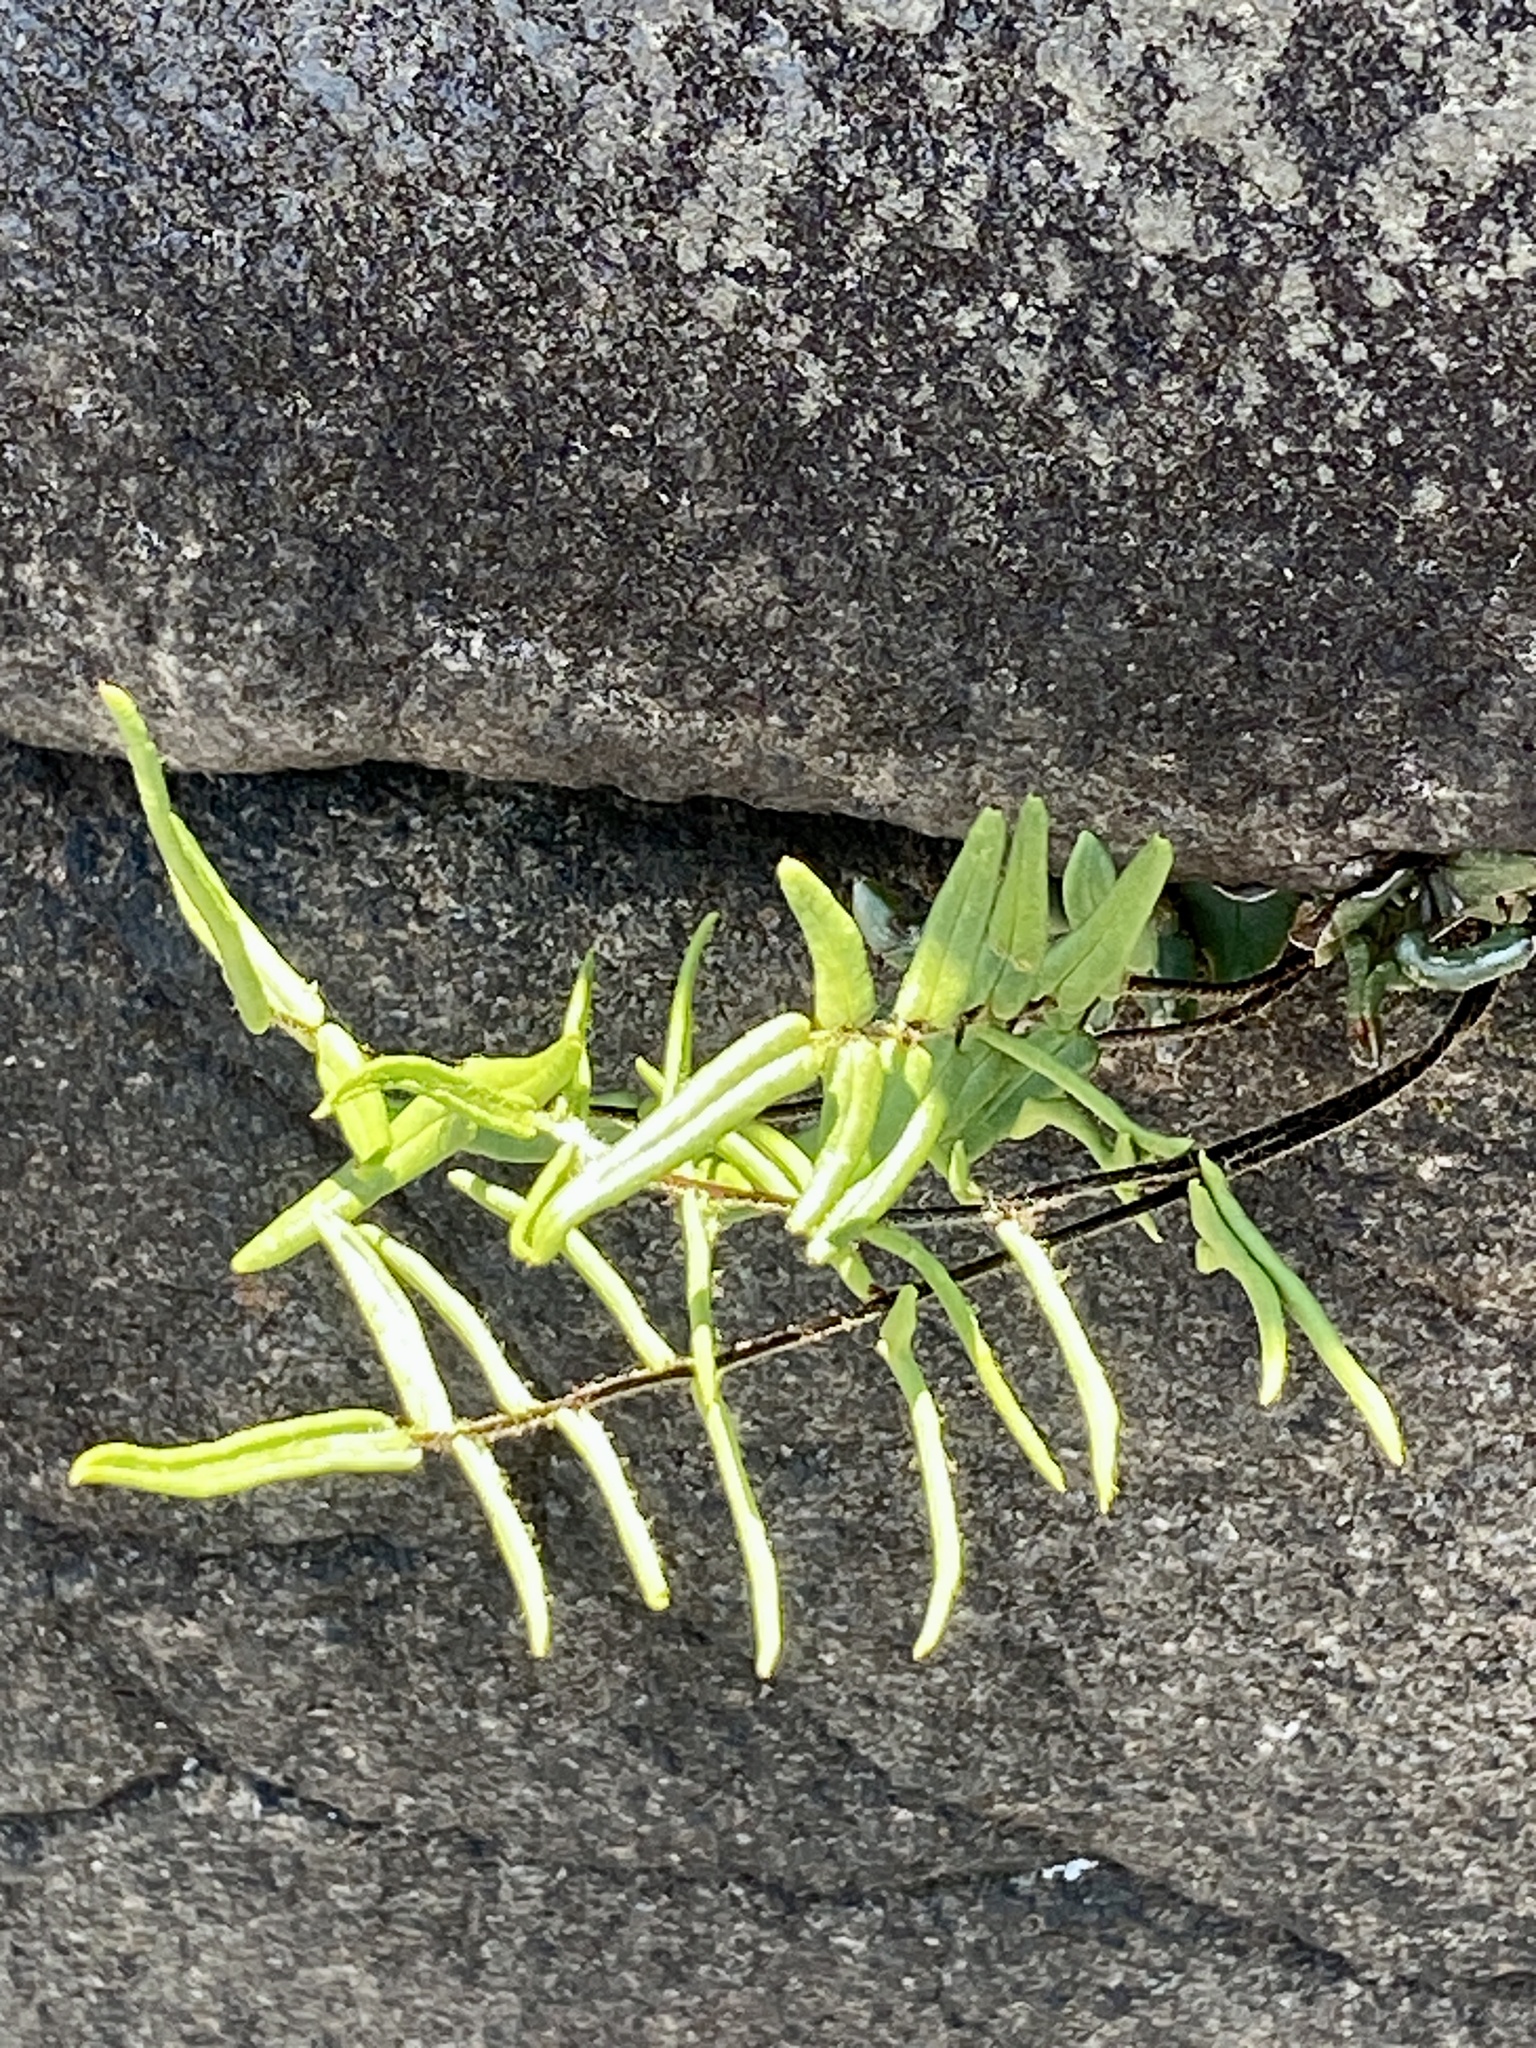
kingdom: Plantae
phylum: Tracheophyta
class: Polypodiopsida
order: Polypodiales
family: Pteridaceae
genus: Pellaea
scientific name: Pellaea atropurpurea
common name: Hairy cliffbrake
